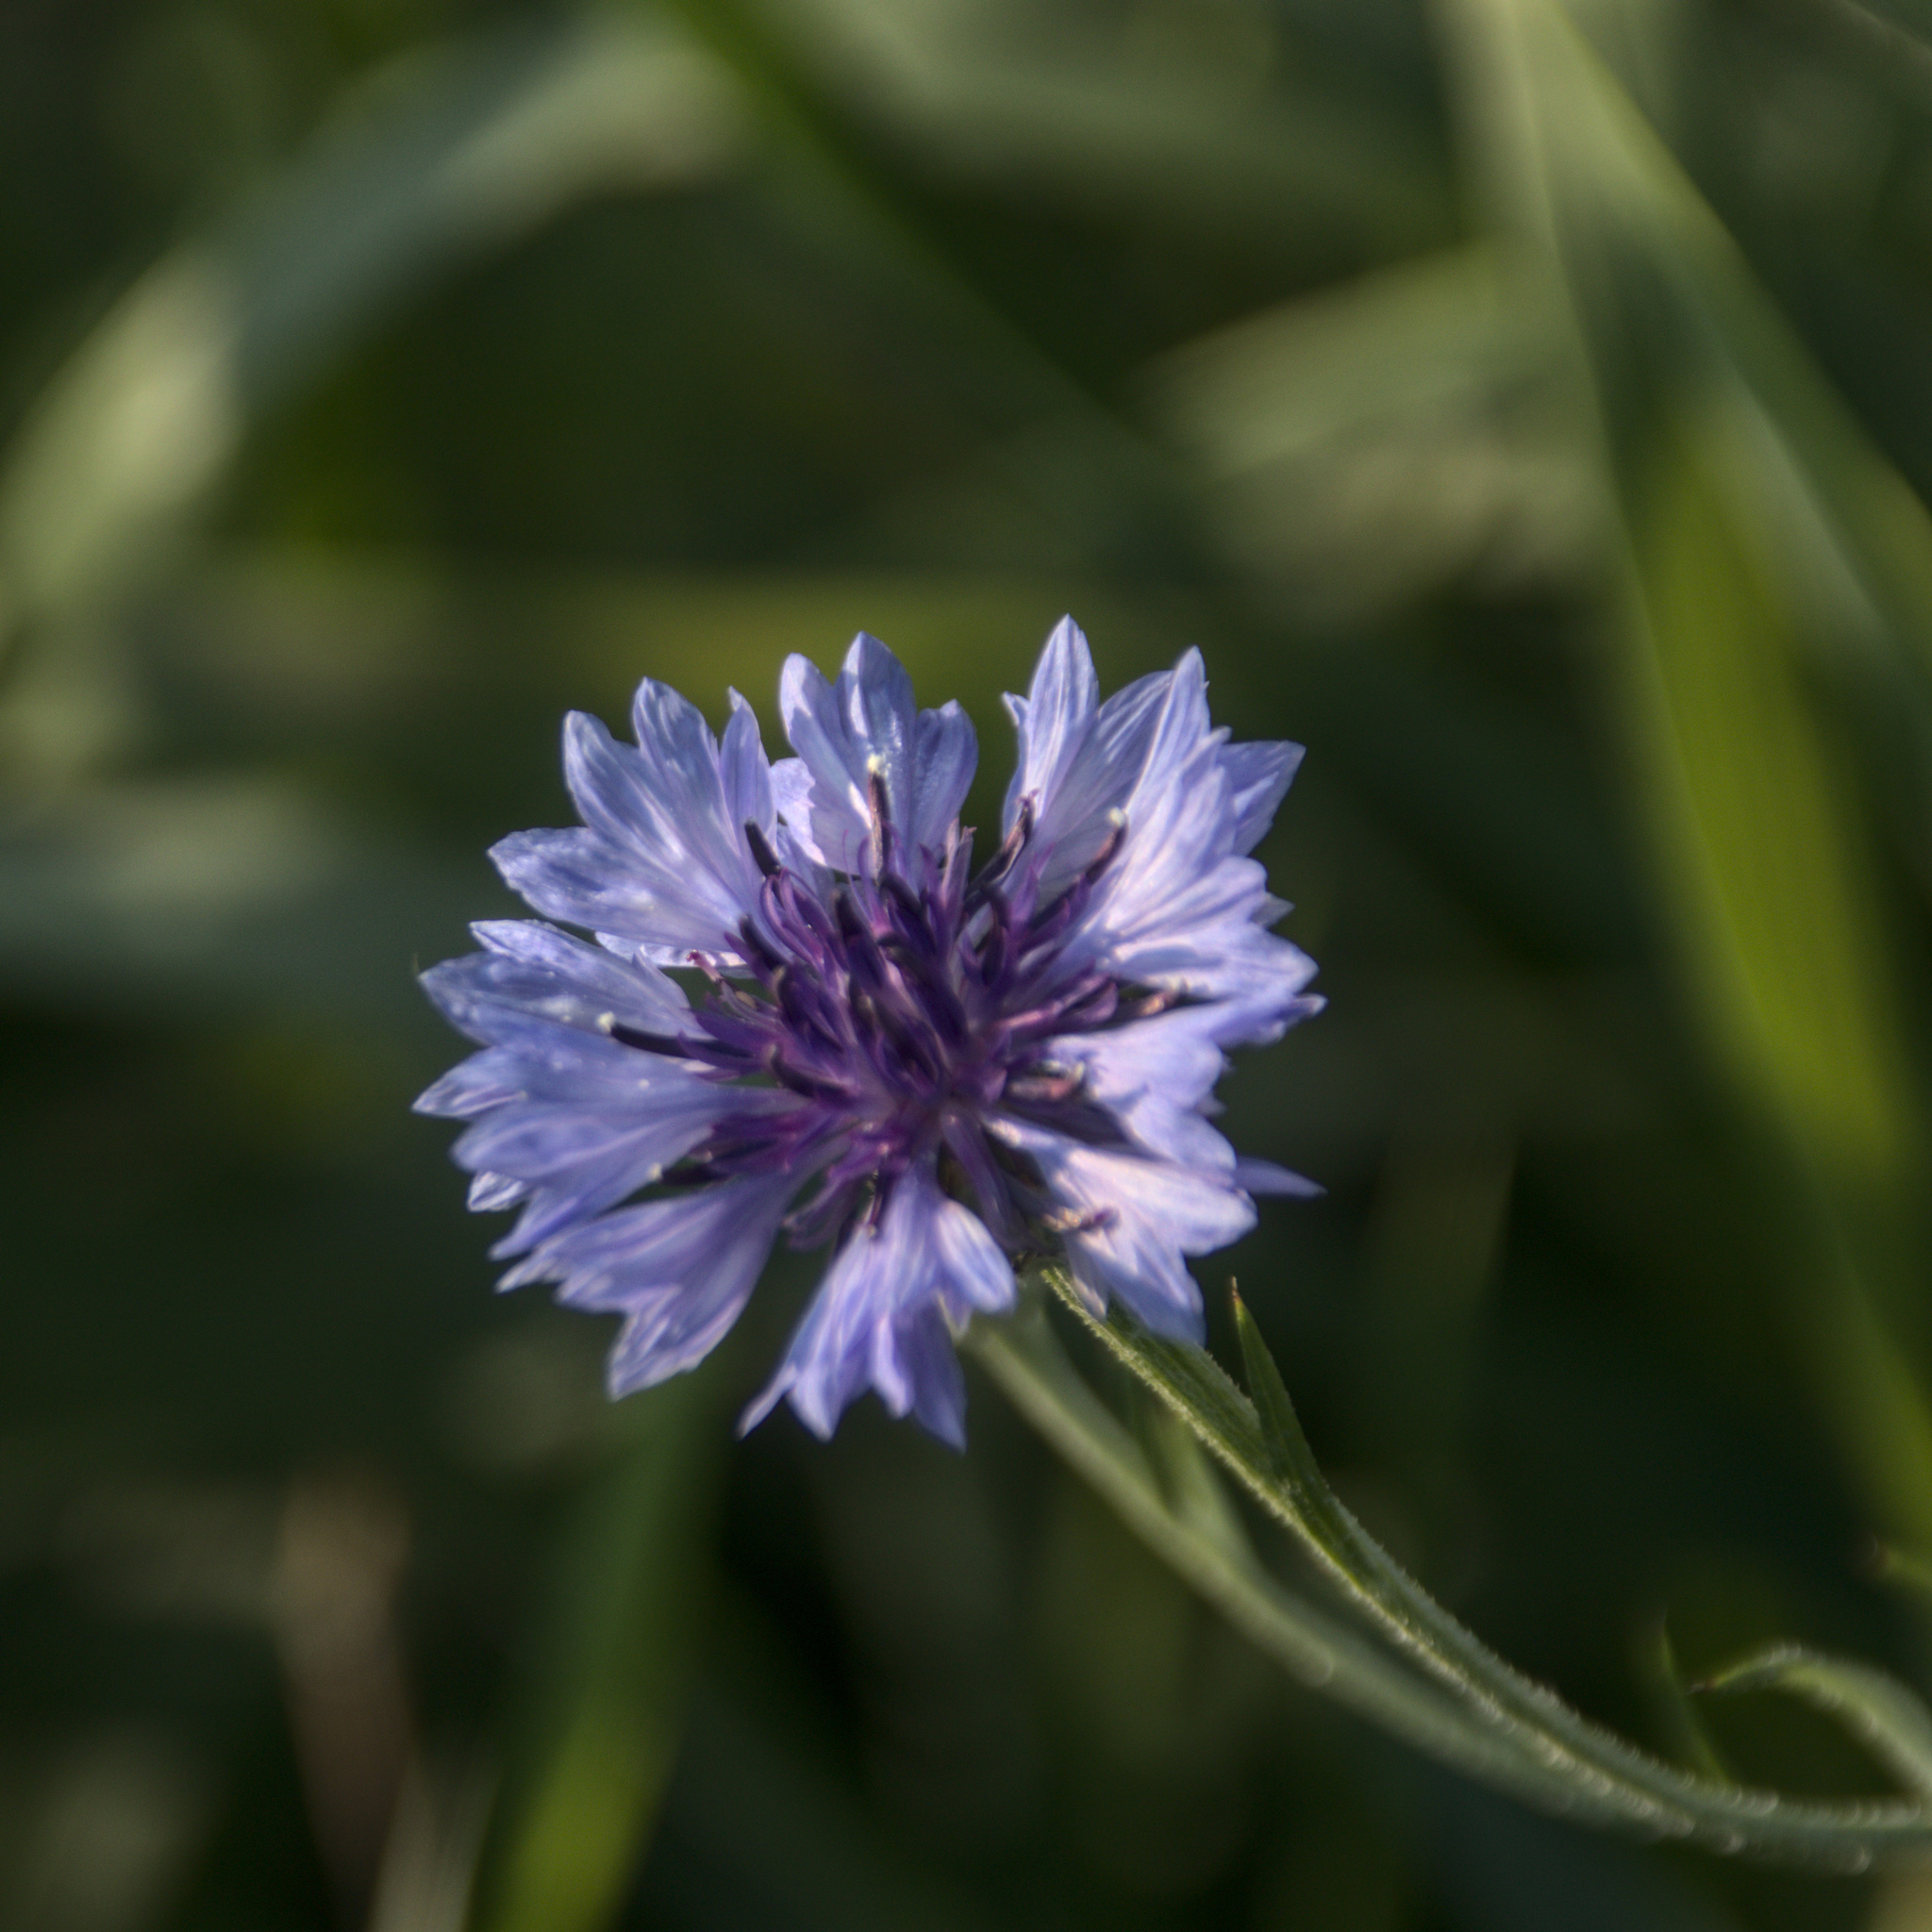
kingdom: Plantae
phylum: Tracheophyta
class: Magnoliopsida
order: Asterales
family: Asteraceae
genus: Centaurea
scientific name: Centaurea cyanus
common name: Cornflower
